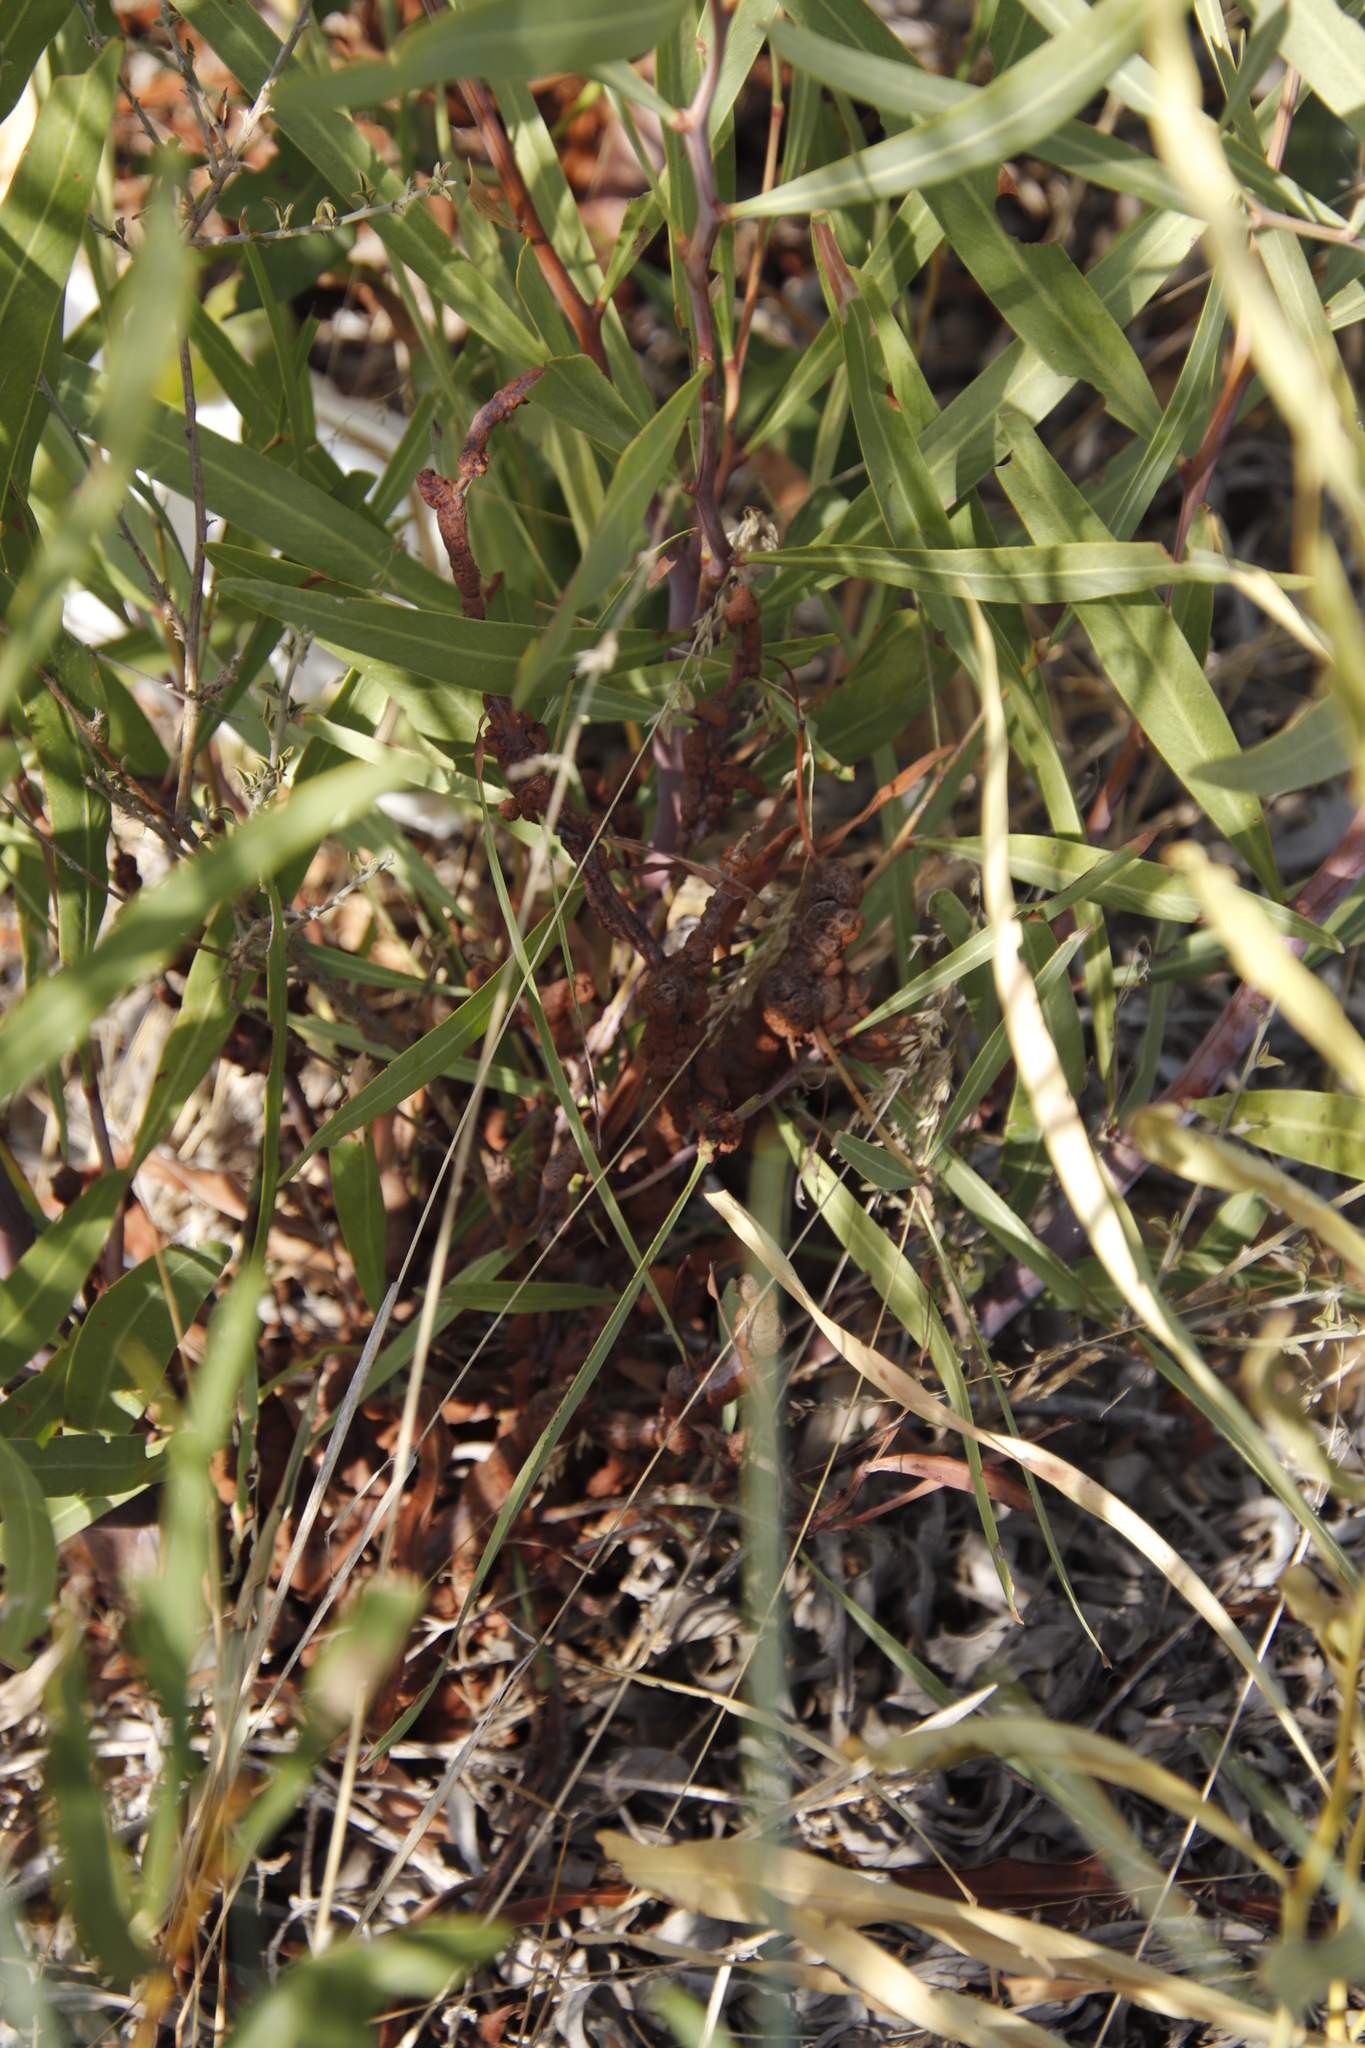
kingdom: Plantae
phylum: Tracheophyta
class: Magnoliopsida
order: Fabales
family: Fabaceae
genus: Acacia
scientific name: Acacia saligna
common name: Orange wattle
